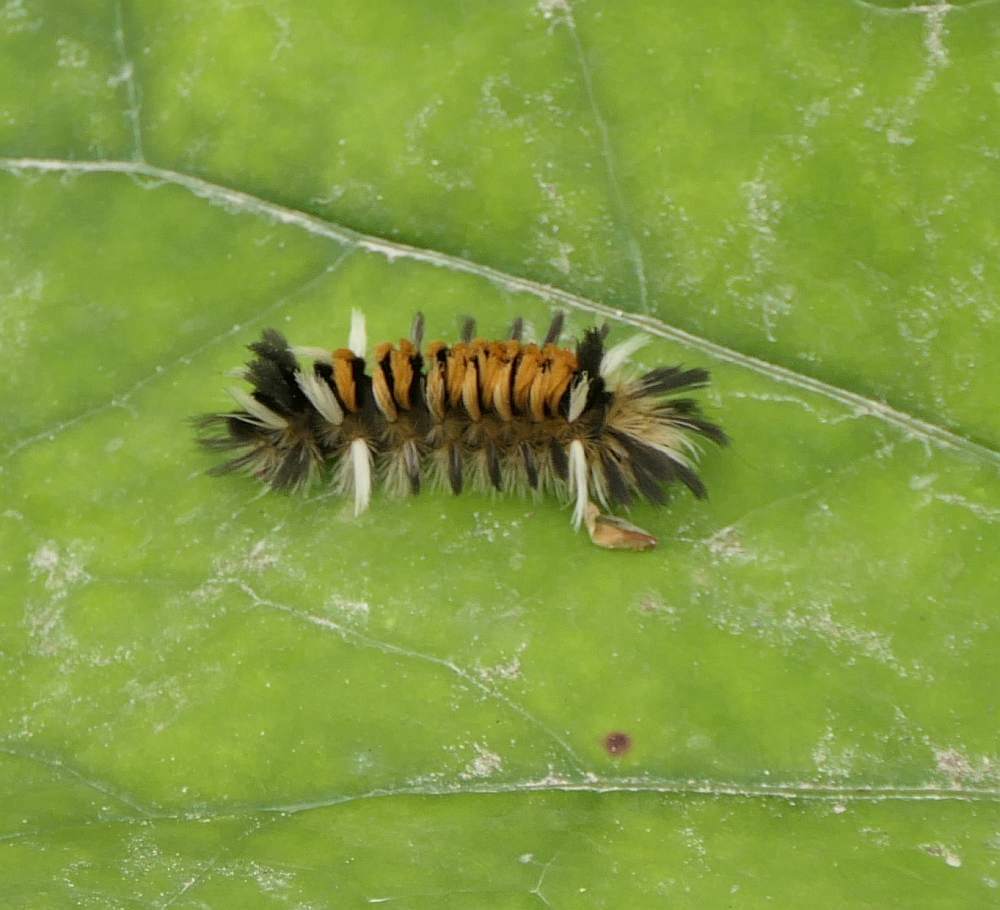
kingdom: Animalia
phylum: Arthropoda
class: Insecta
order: Lepidoptera
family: Erebidae
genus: Euchaetes
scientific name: Euchaetes egle
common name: Milkweed tussock moth
